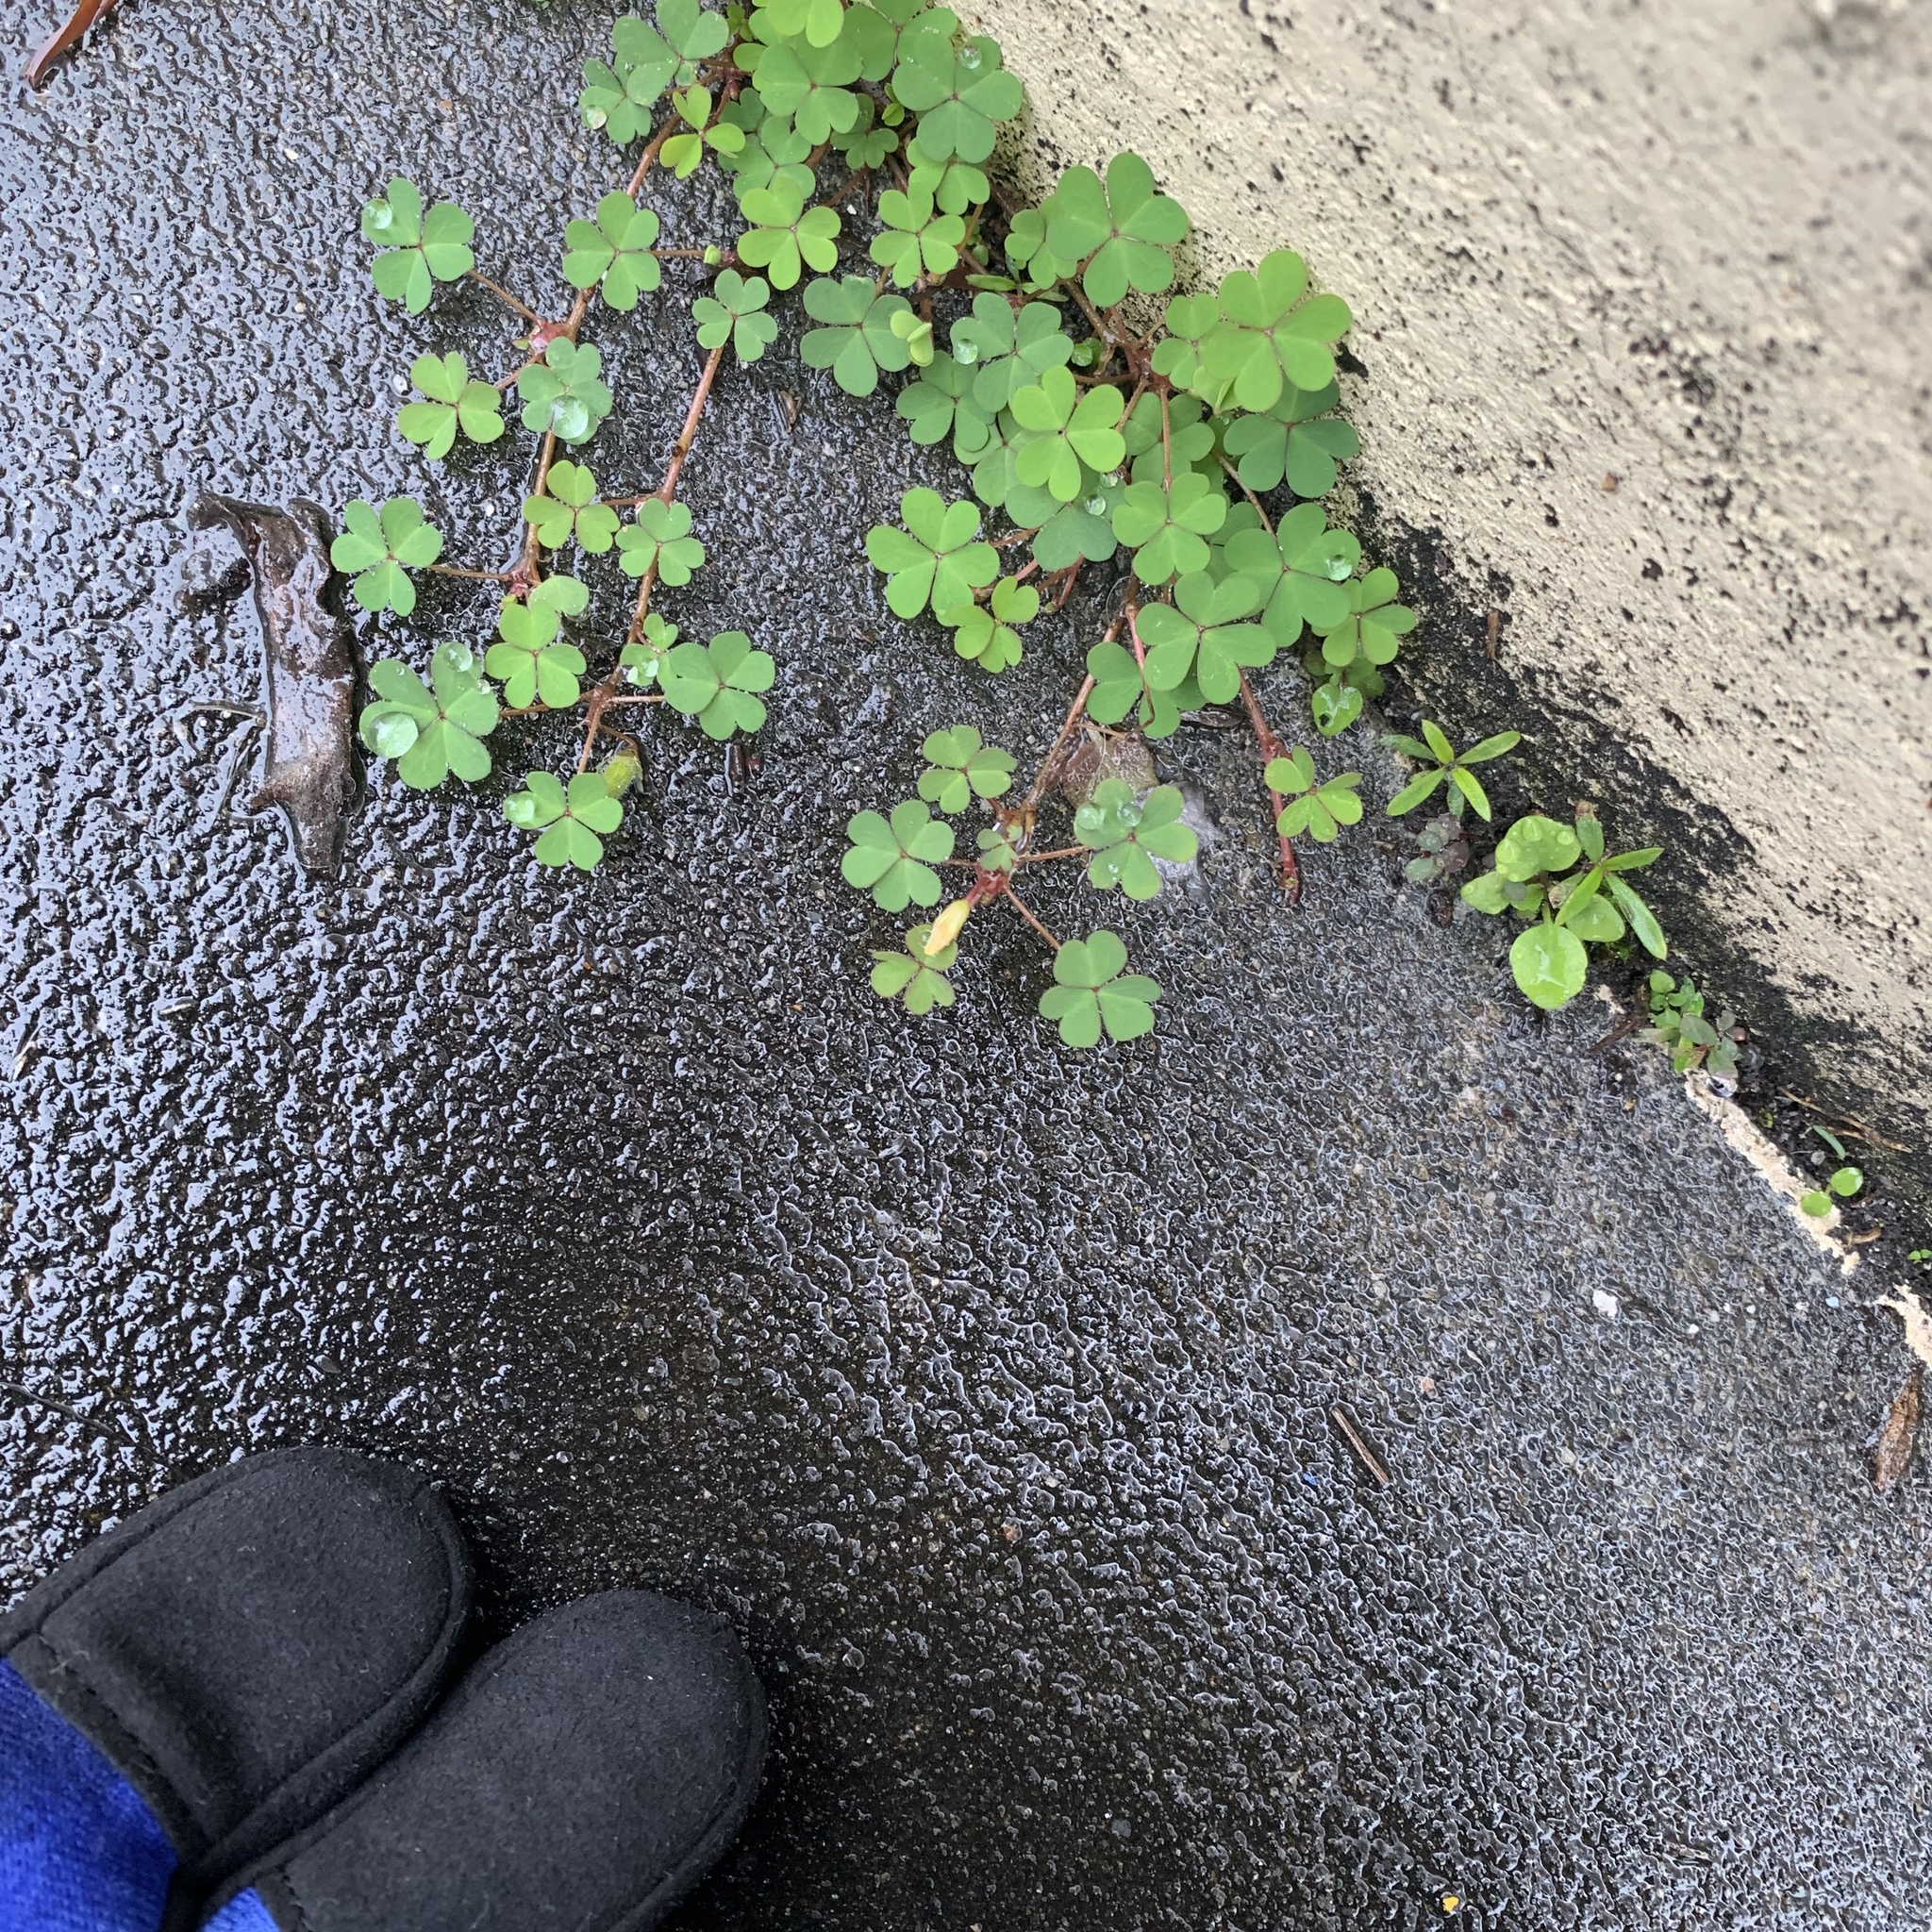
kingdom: Plantae
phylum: Tracheophyta
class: Magnoliopsida
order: Oxalidales
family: Oxalidaceae
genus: Oxalis
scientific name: Oxalis corniculata
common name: Procumbent yellow-sorrel
